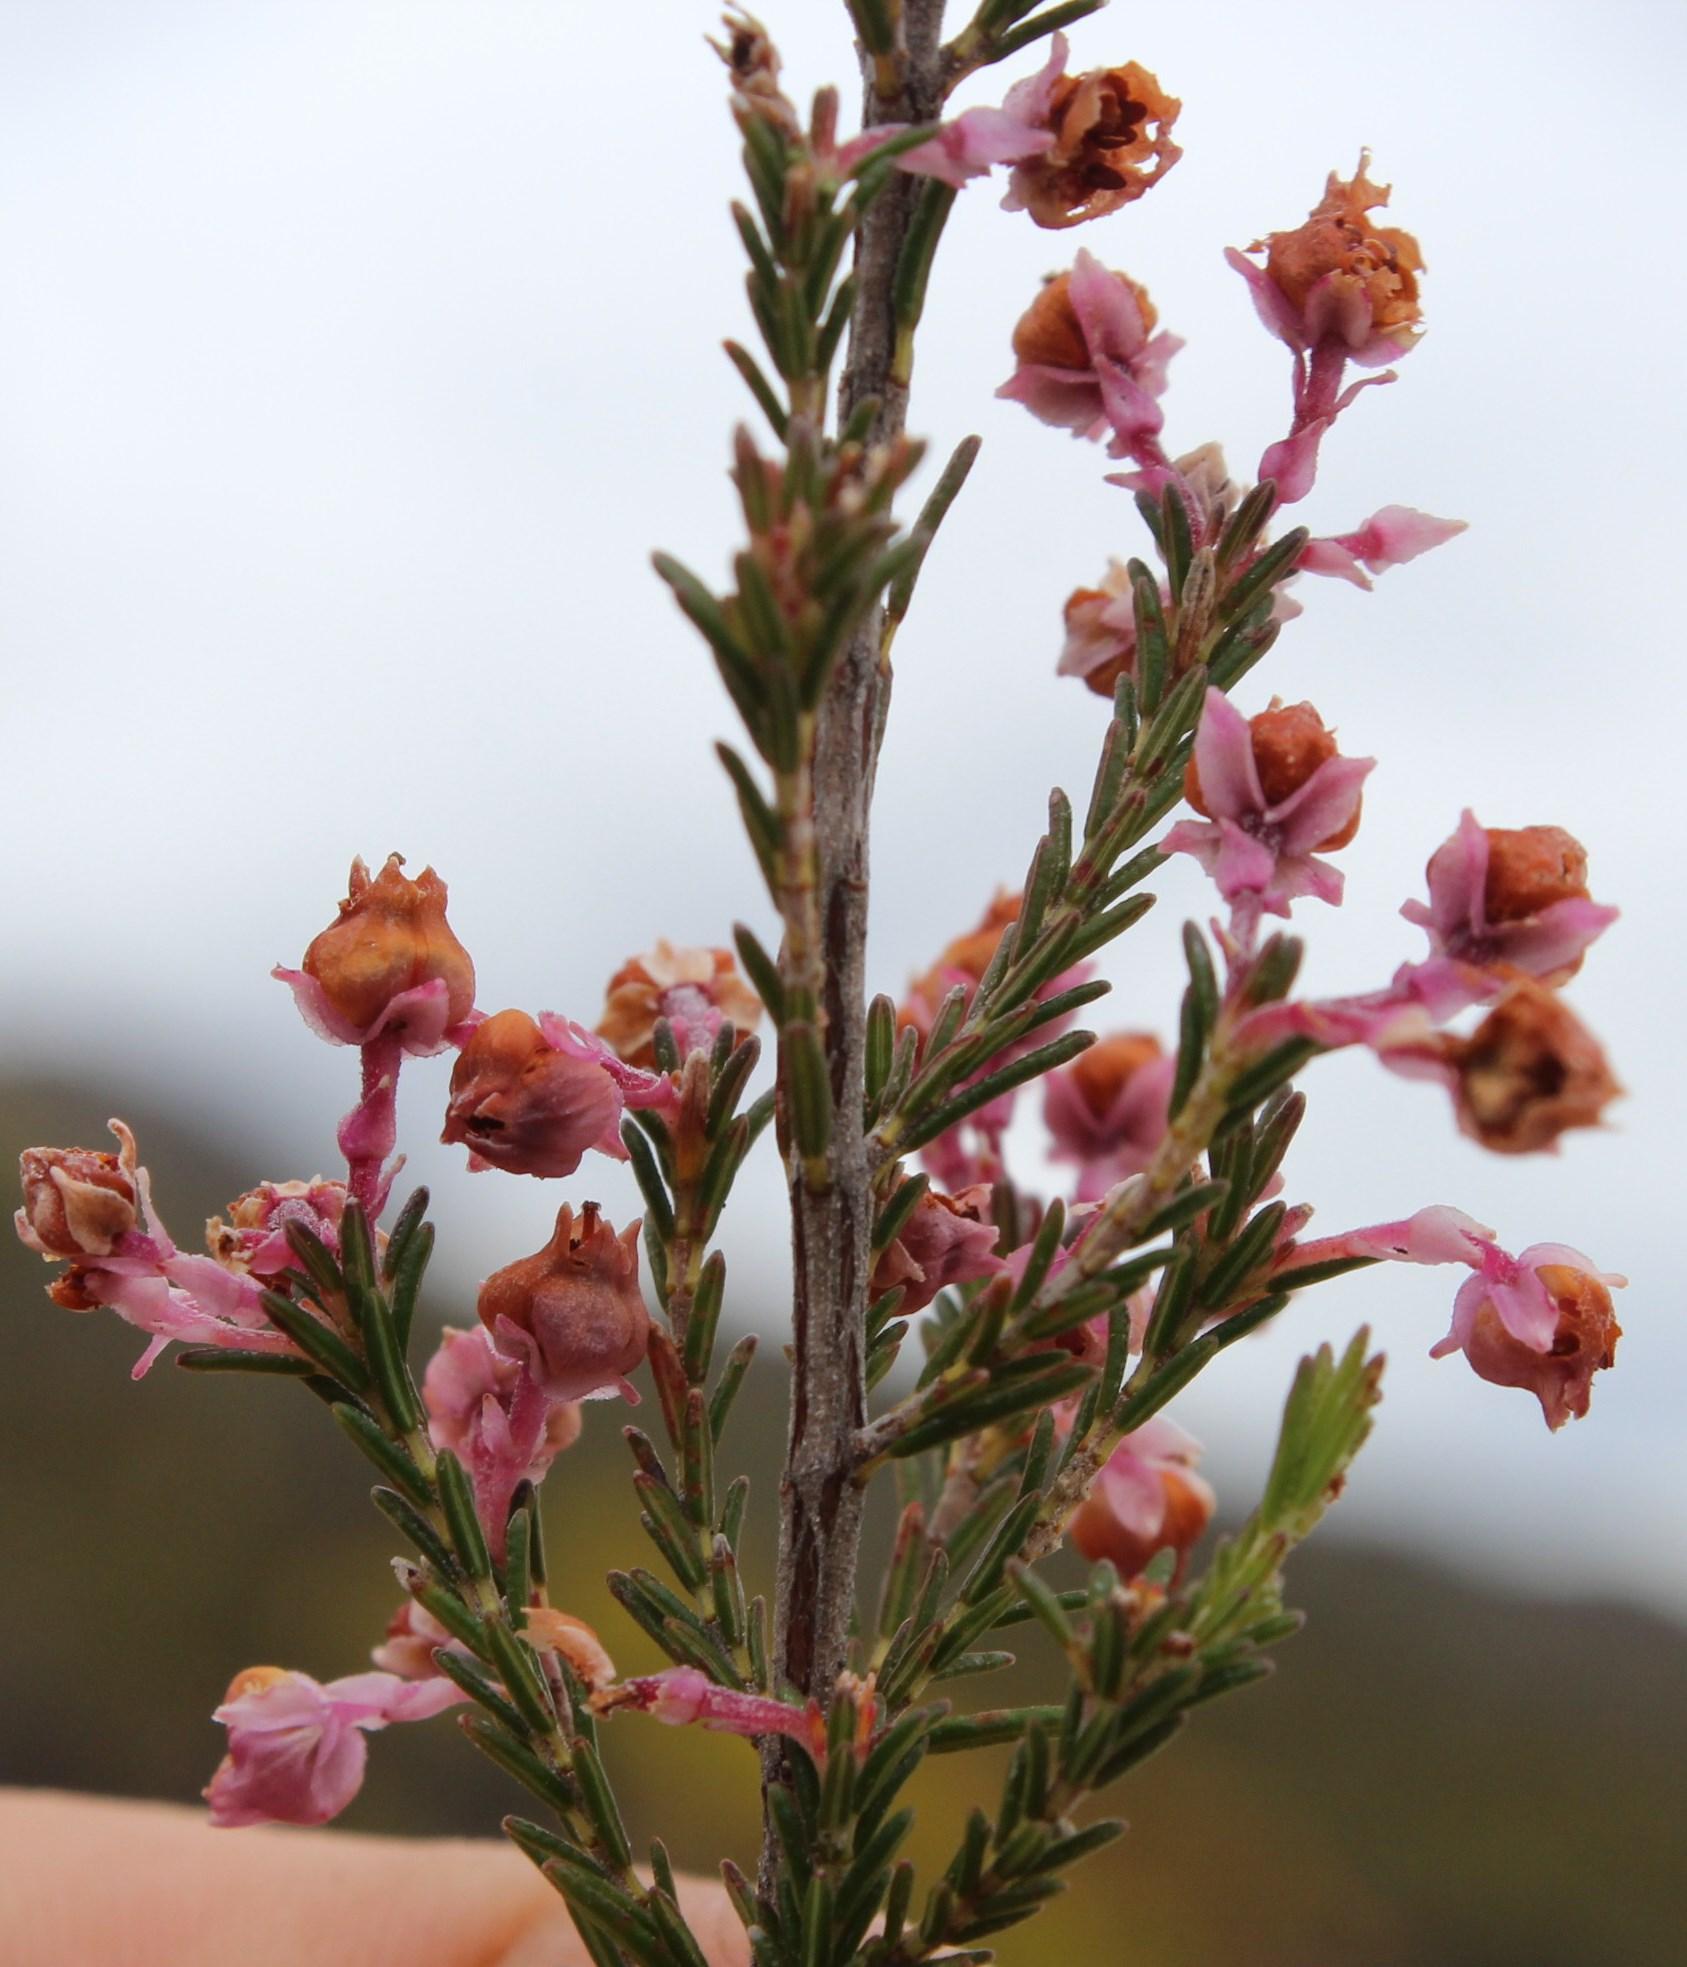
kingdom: Plantae
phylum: Tracheophyta
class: Magnoliopsida
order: Ericales
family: Ericaceae
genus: Erica
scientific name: Erica selaginifolia
